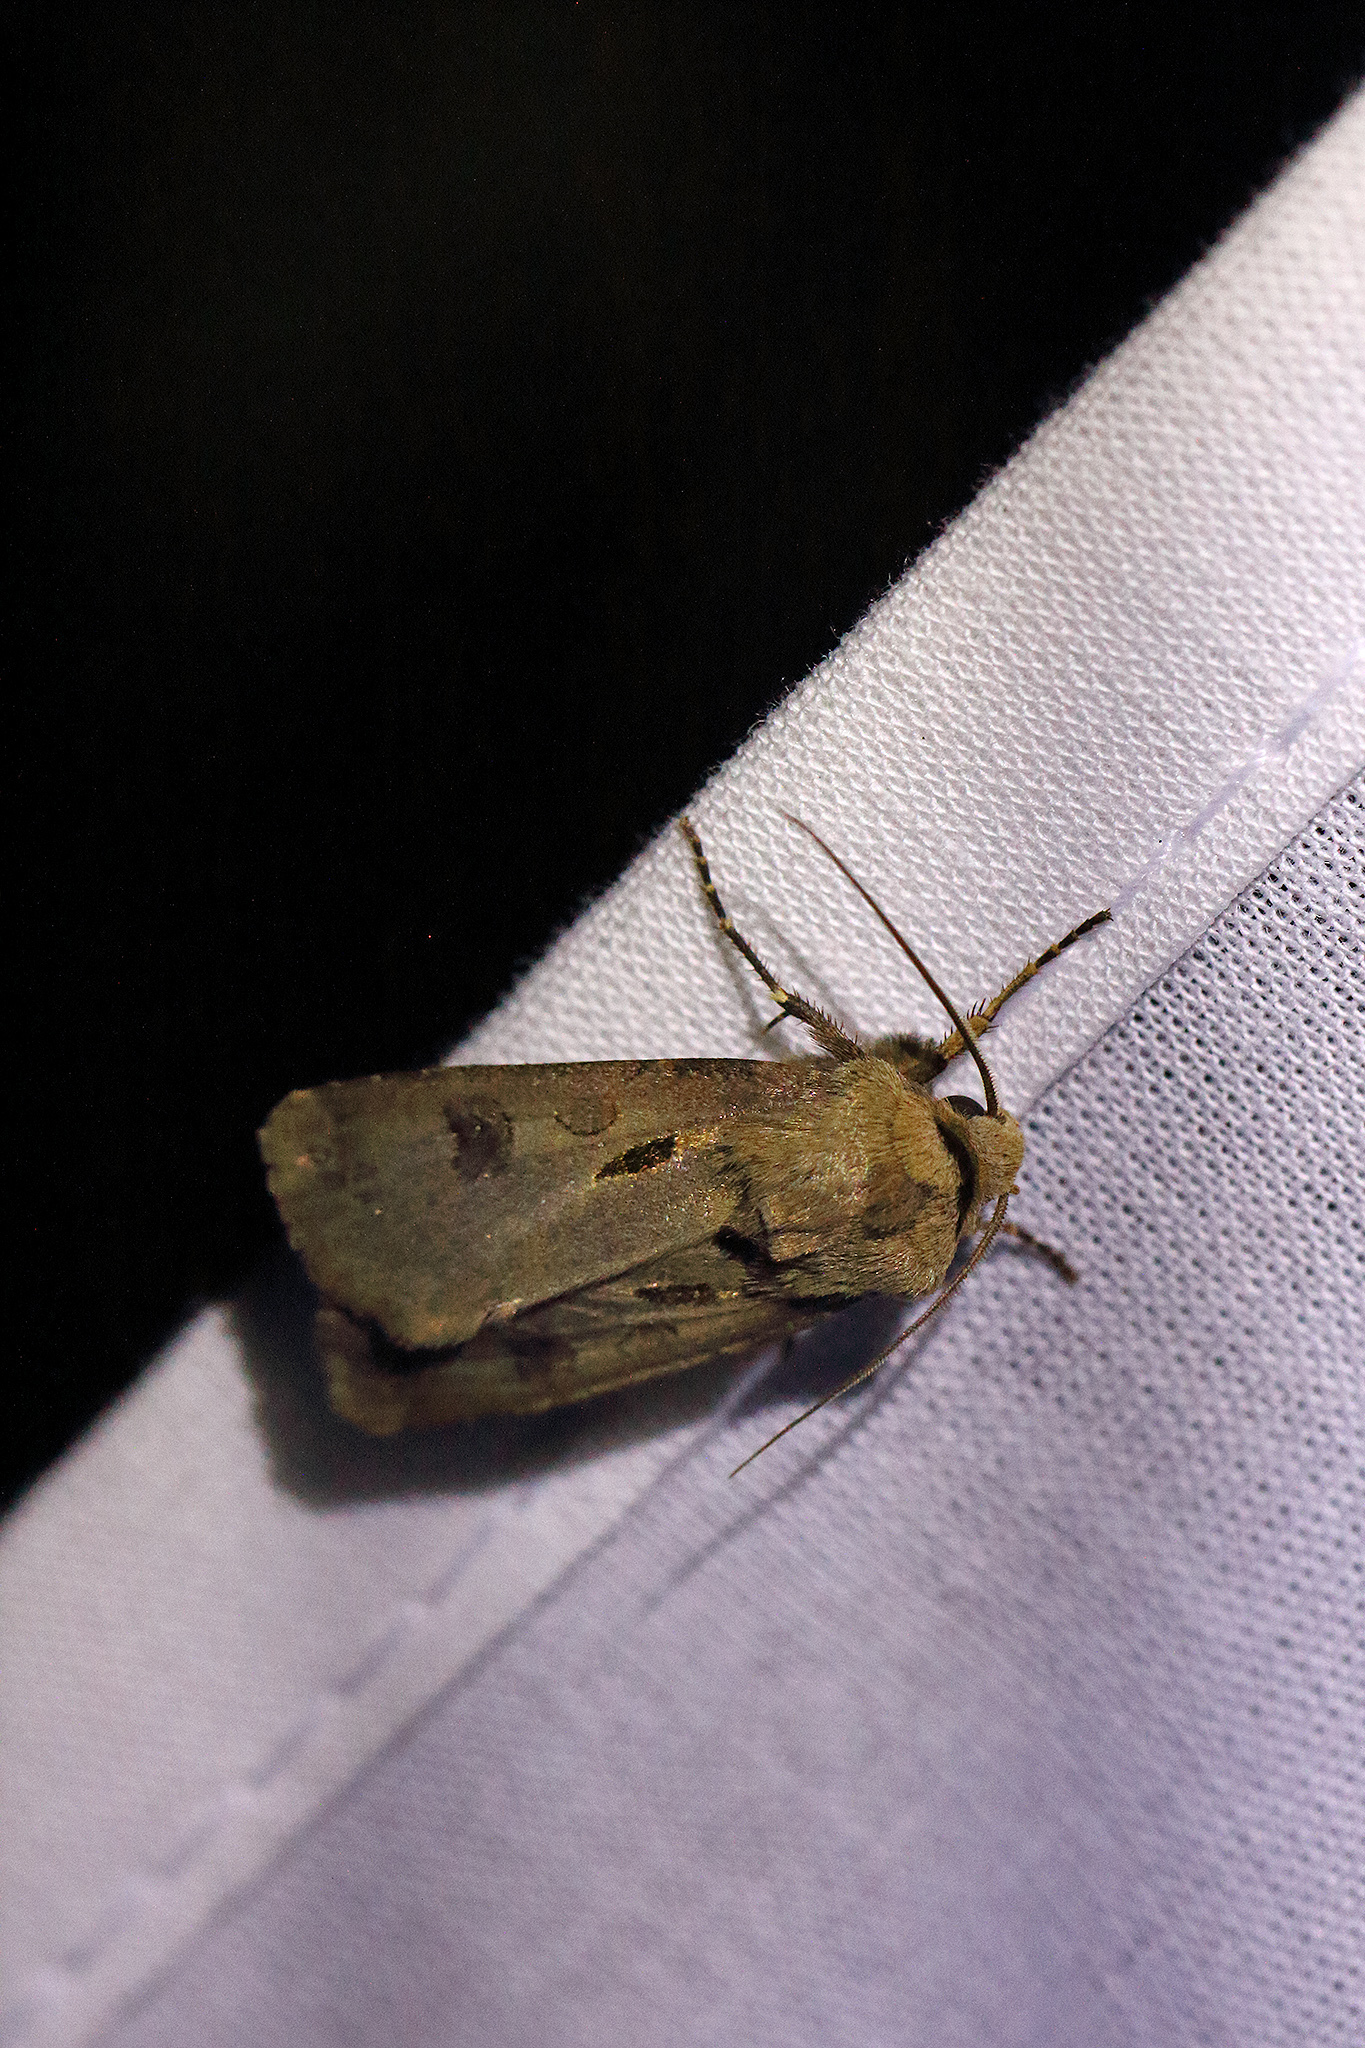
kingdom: Animalia
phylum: Arthropoda
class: Insecta
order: Lepidoptera
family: Noctuidae
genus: Agrotis
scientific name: Agrotis exclamationis
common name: Heart and dart
